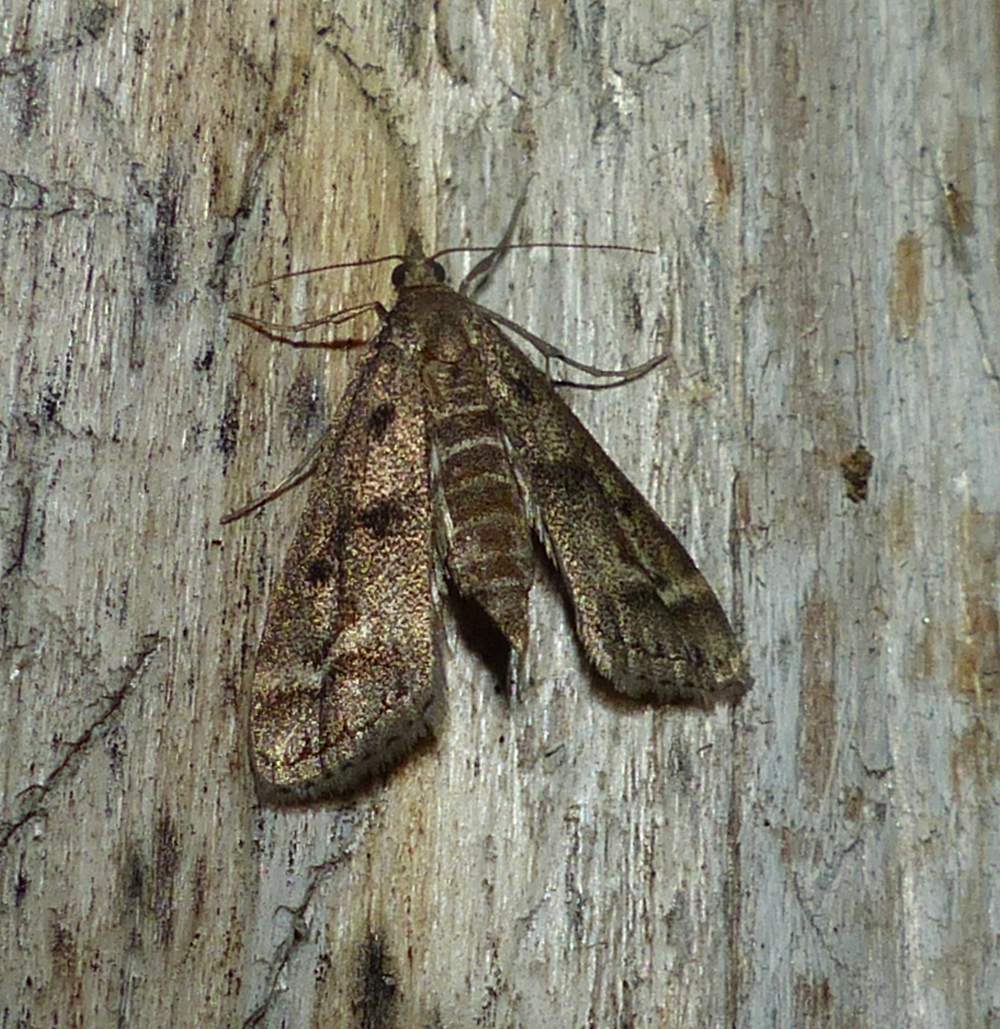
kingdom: Animalia
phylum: Arthropoda
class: Insecta
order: Lepidoptera
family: Crambidae
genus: Parapoynx
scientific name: Parapoynx obscuralis
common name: American china-mark
